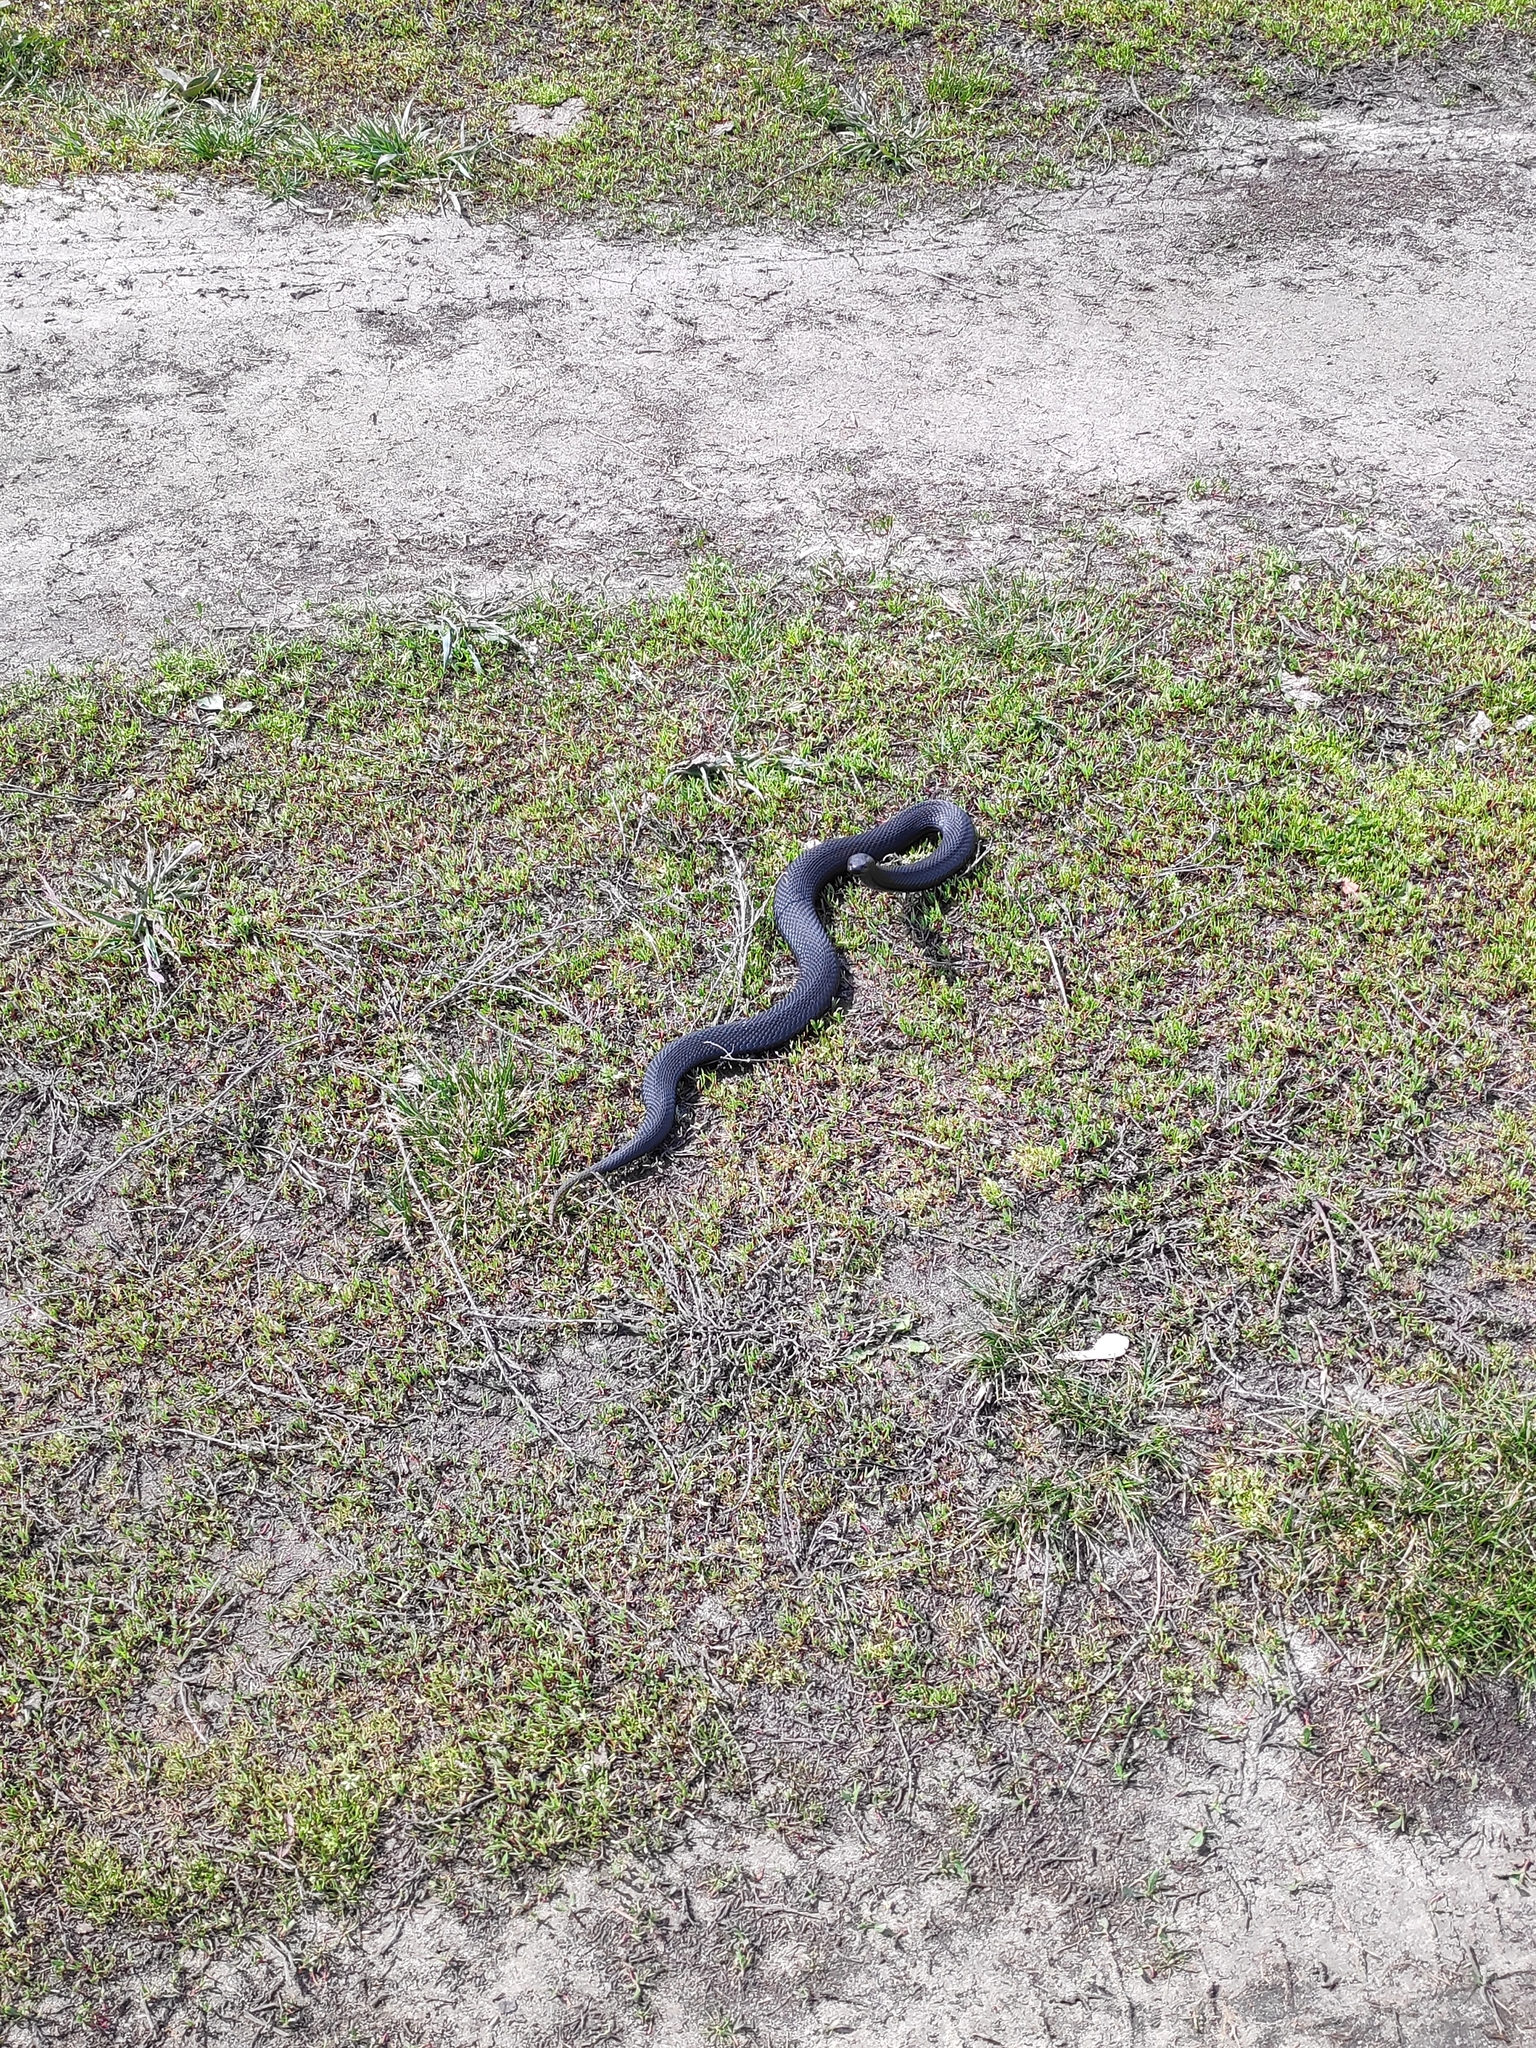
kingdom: Animalia
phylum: Chordata
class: Squamata
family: Viperidae
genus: Vipera
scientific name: Vipera nikolskii
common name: Adder
